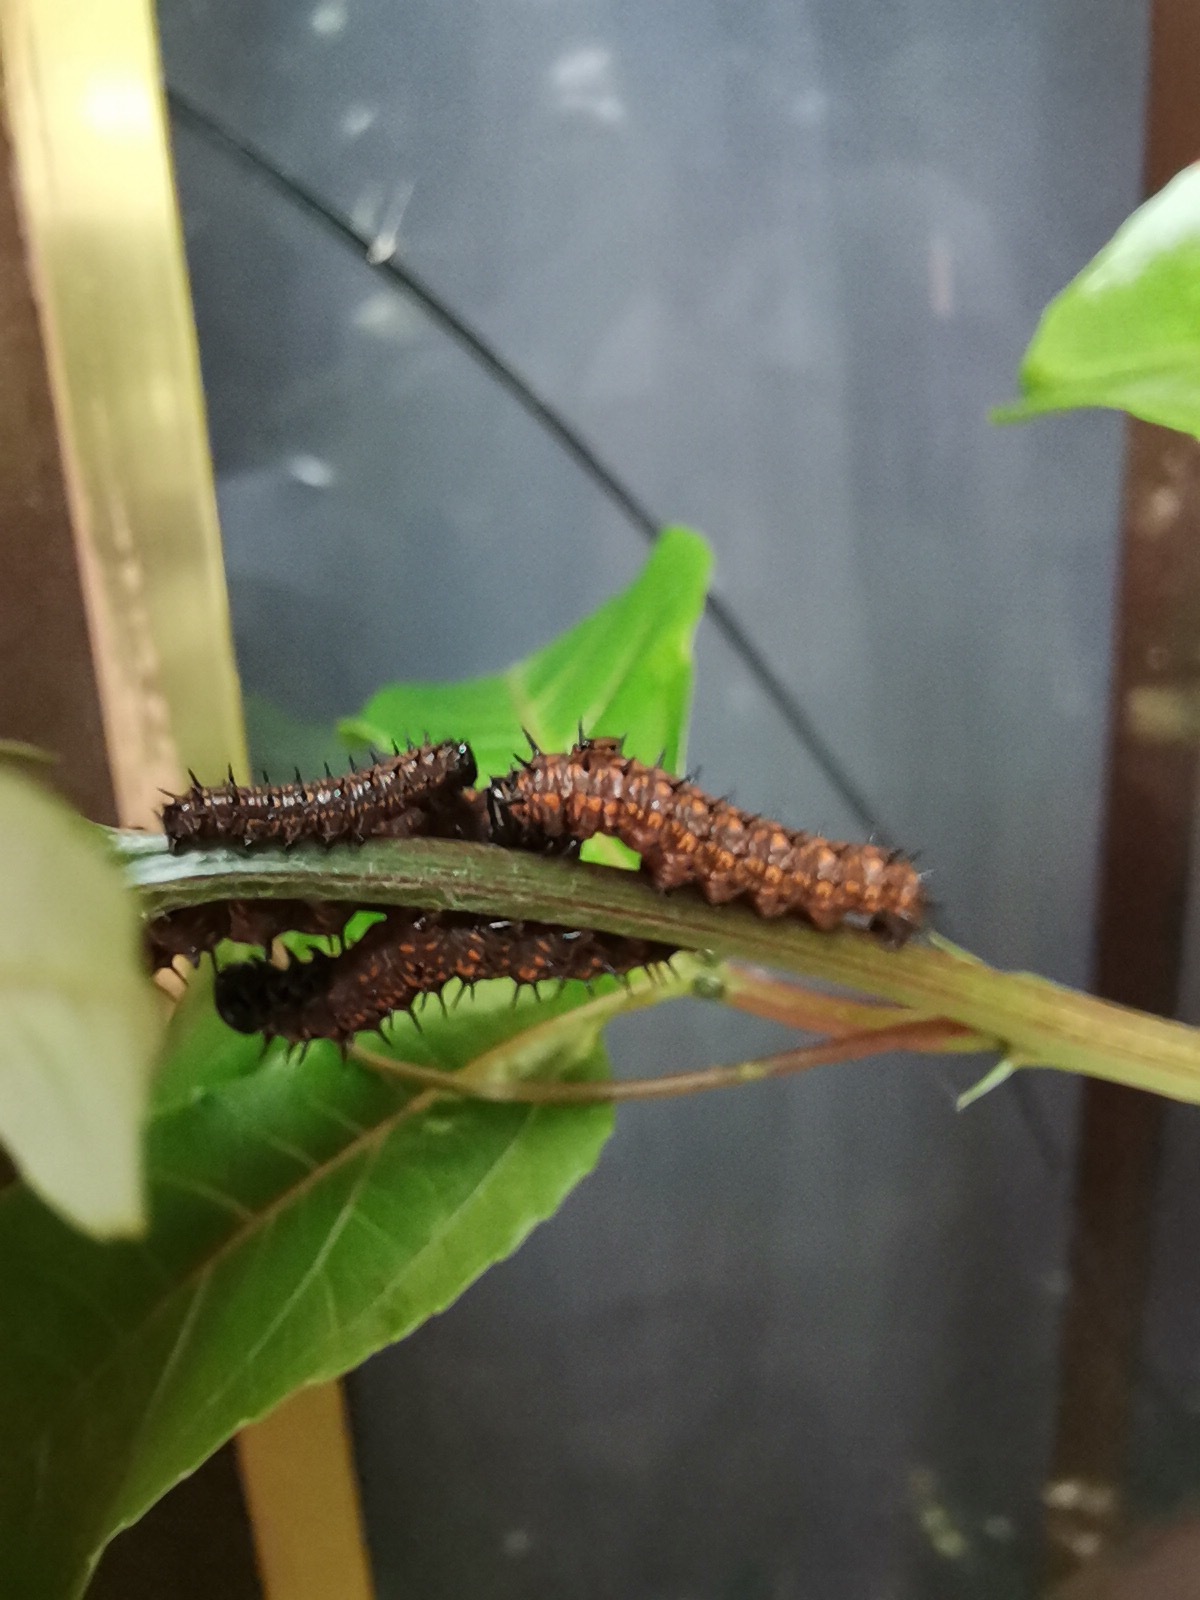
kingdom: Animalia
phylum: Arthropoda
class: Insecta
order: Lepidoptera
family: Nymphalidae
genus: Dione
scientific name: Dione juno
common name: Juno silverspot
